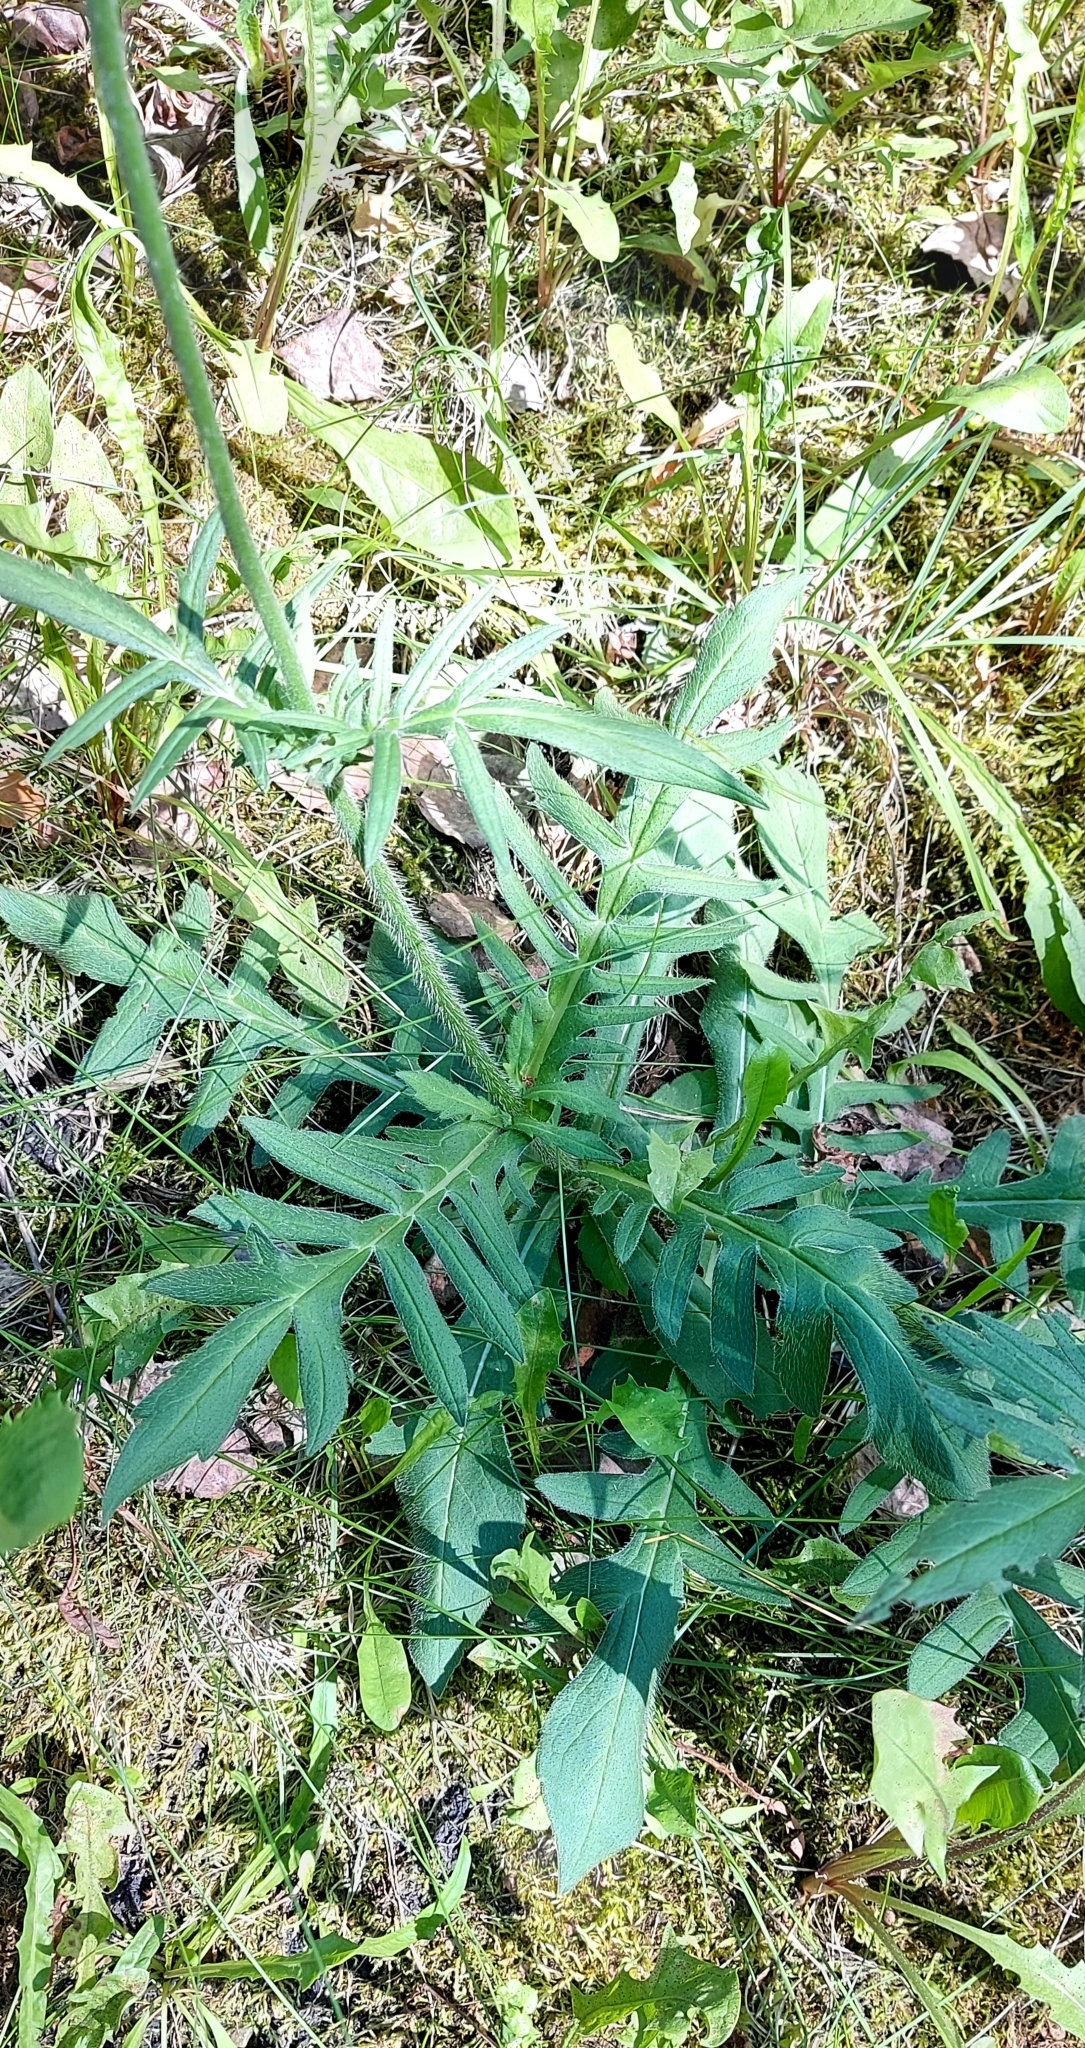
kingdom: Plantae
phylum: Tracheophyta
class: Magnoliopsida
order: Dipsacales
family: Caprifoliaceae
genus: Knautia
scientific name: Knautia arvensis
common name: Field scabiosa
